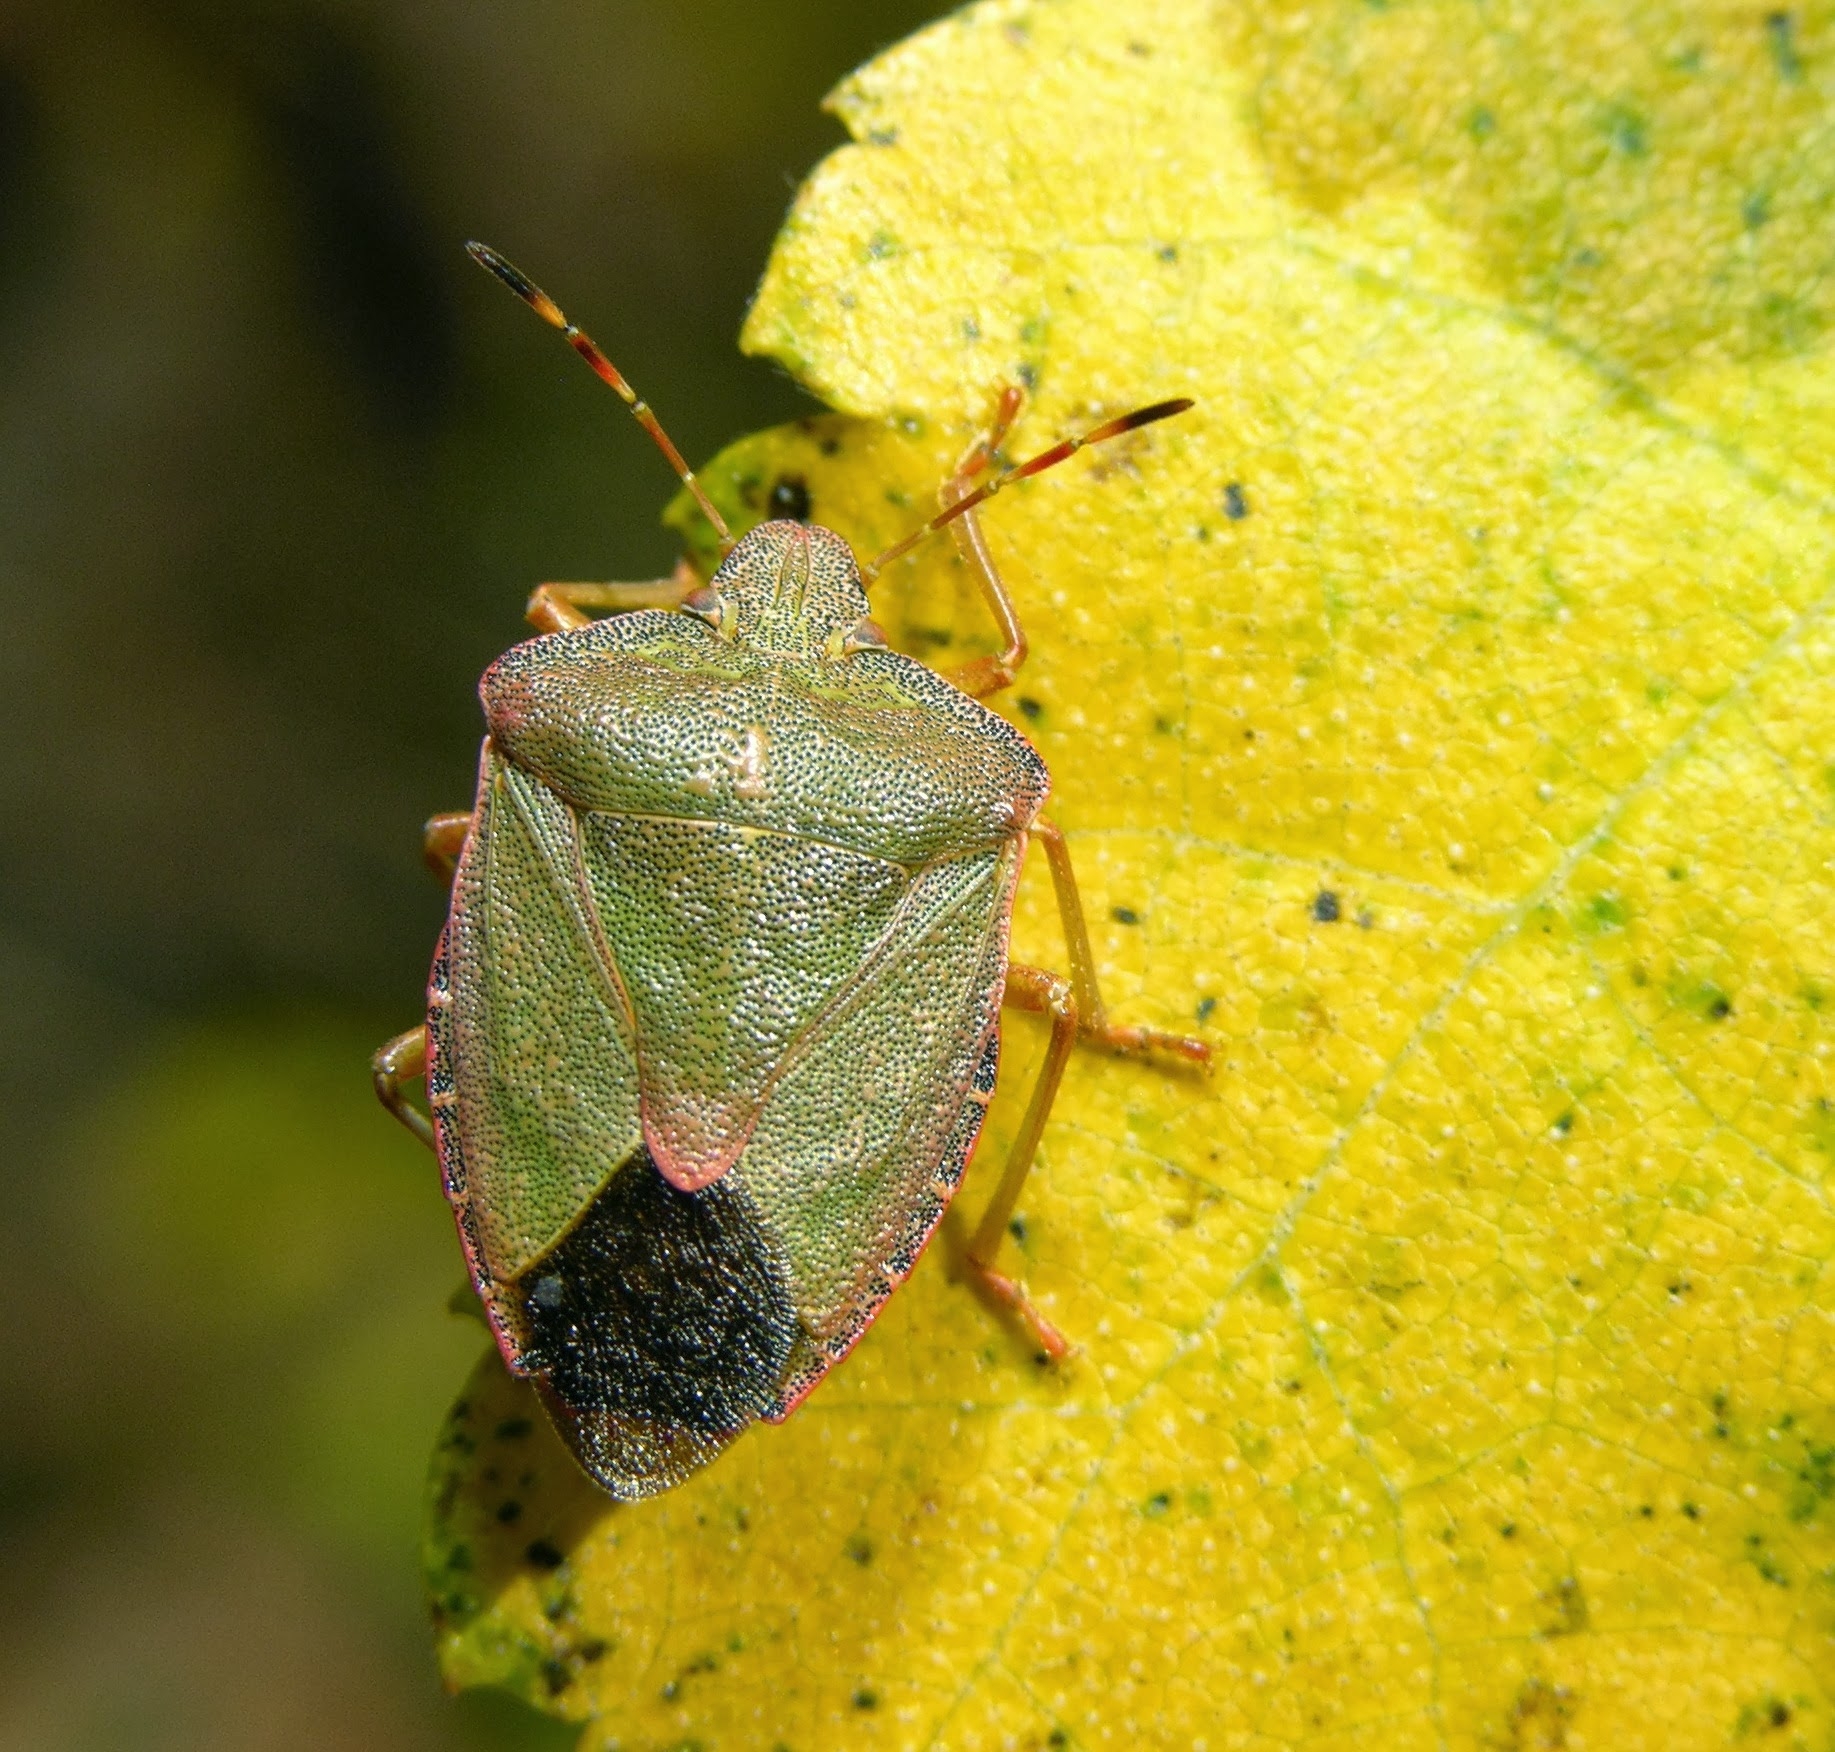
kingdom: Animalia
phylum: Arthropoda
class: Insecta
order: Hemiptera
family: Pentatomidae
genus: Palomena
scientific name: Palomena prasina
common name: Green shieldbug
